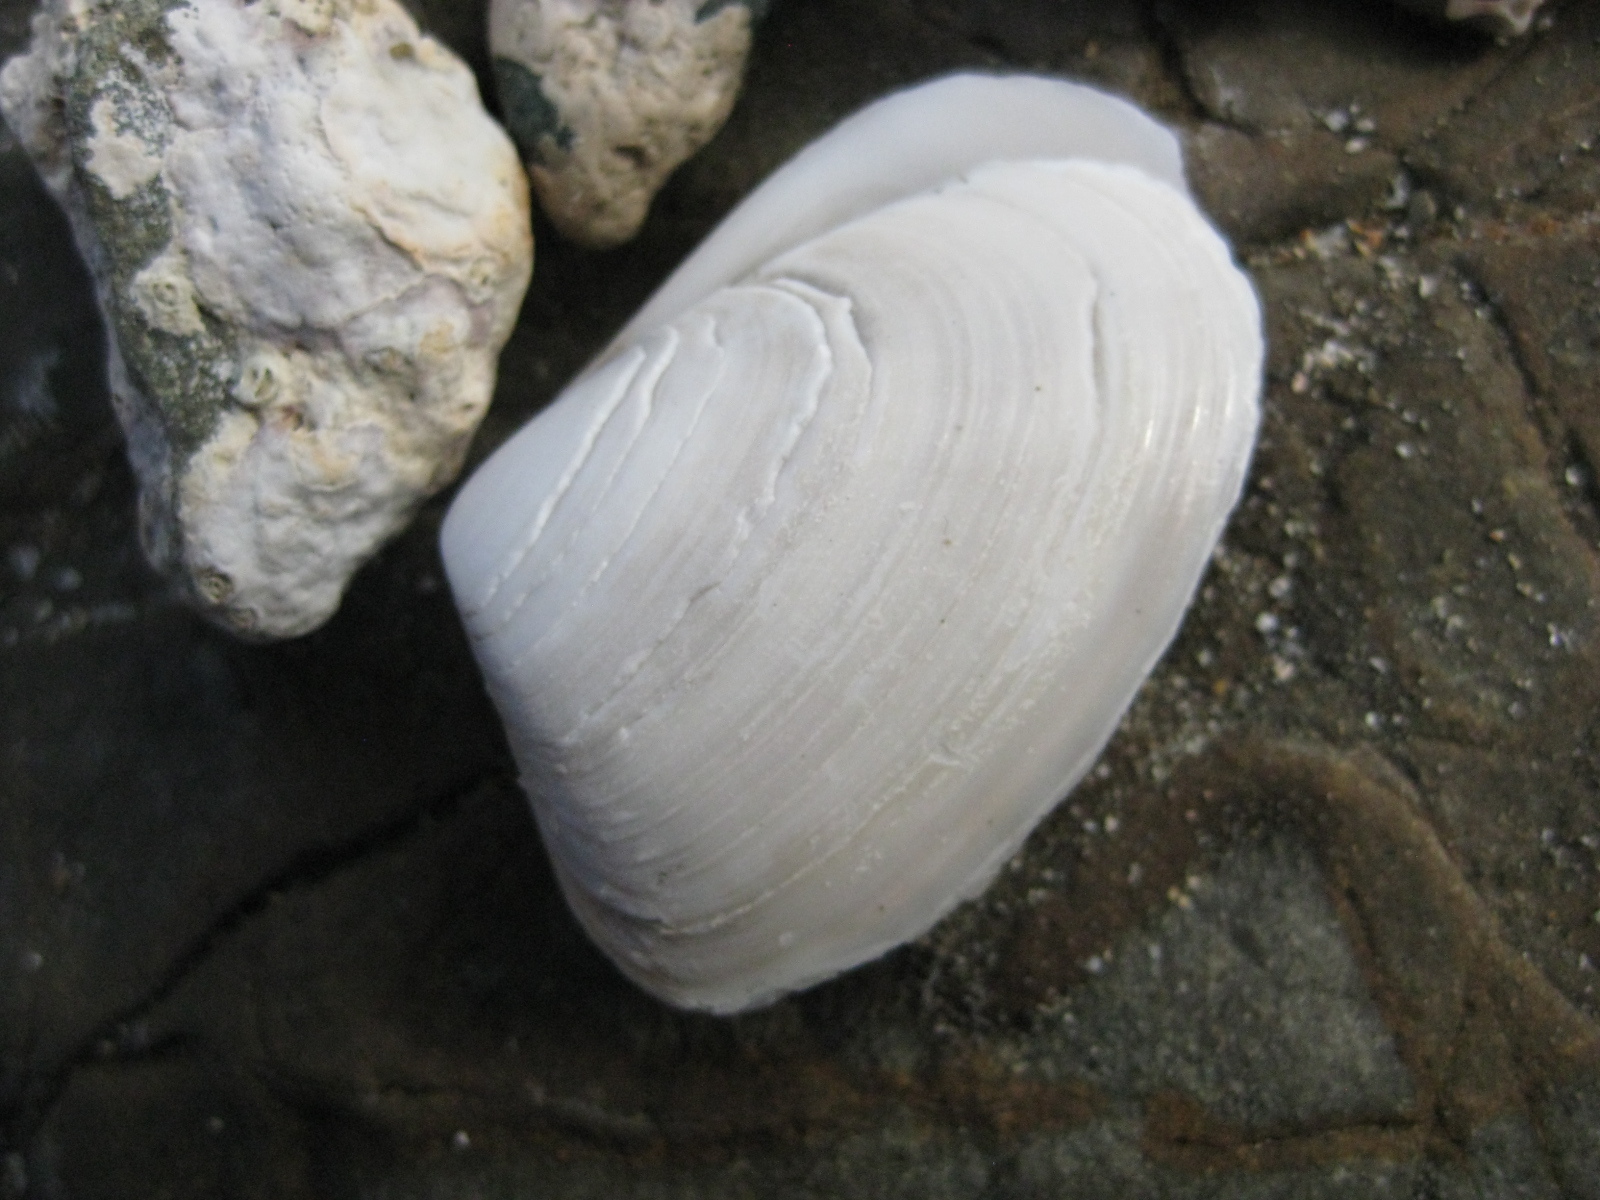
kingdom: Animalia
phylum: Mollusca
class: Bivalvia
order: Venerida
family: Mesodesmatidae
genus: Paphies
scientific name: Paphies subtriangulata
